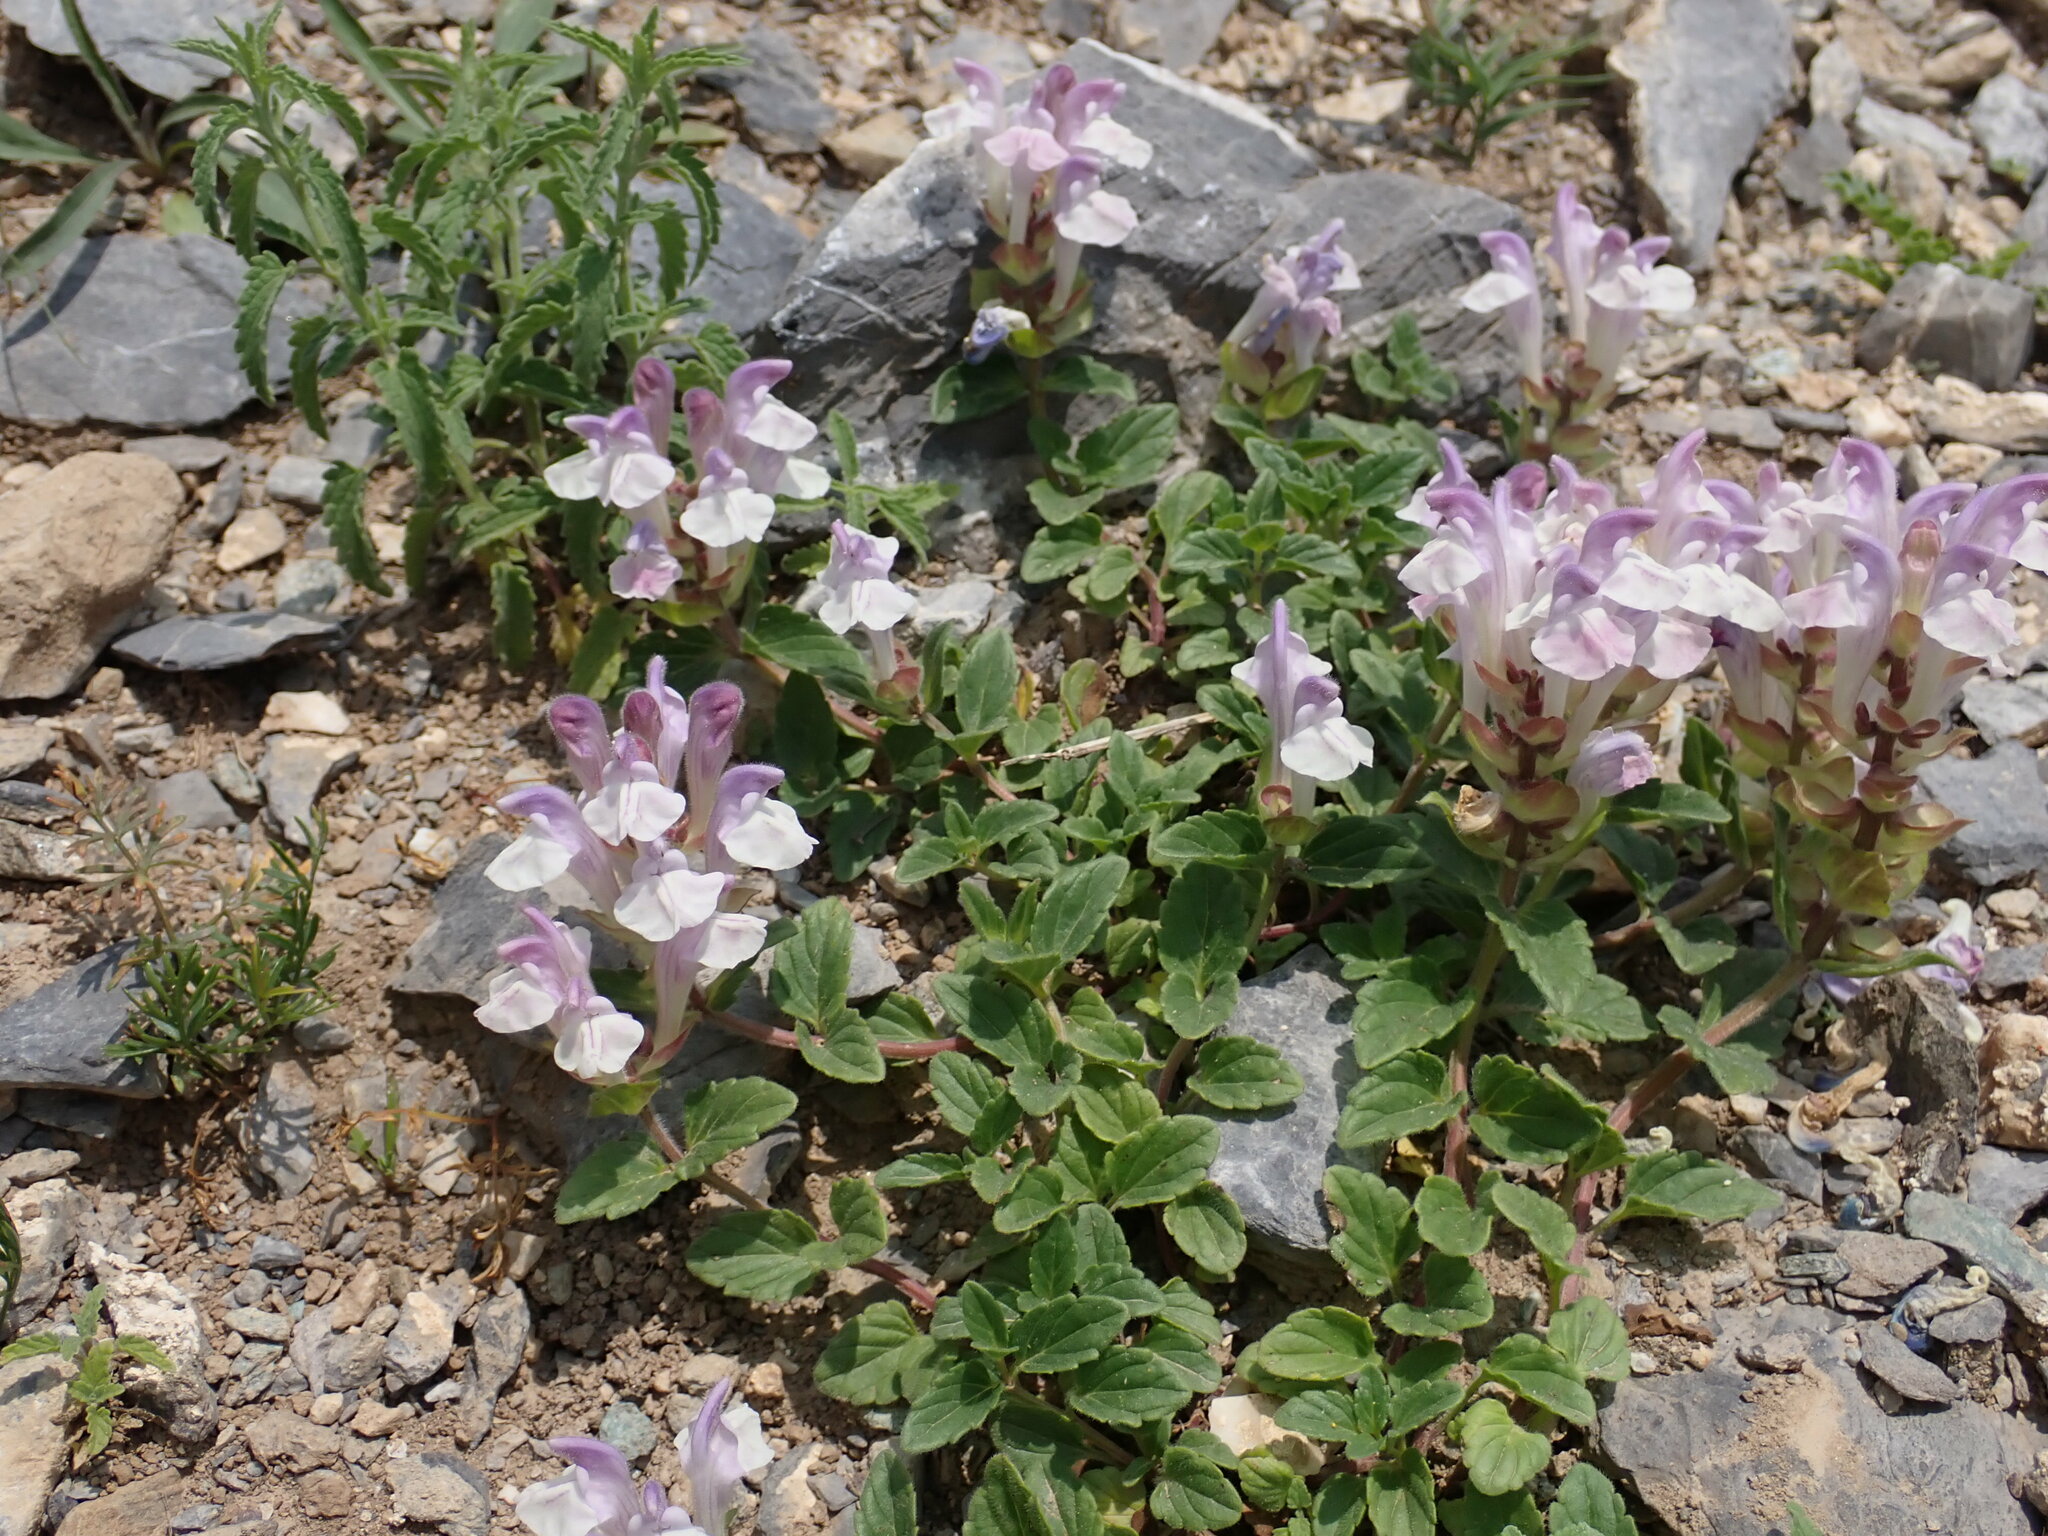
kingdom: Plantae
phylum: Tracheophyta
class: Magnoliopsida
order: Lamiales
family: Lamiaceae
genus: Scutellaria
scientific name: Scutellaria alpina
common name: Alpine scullcap
